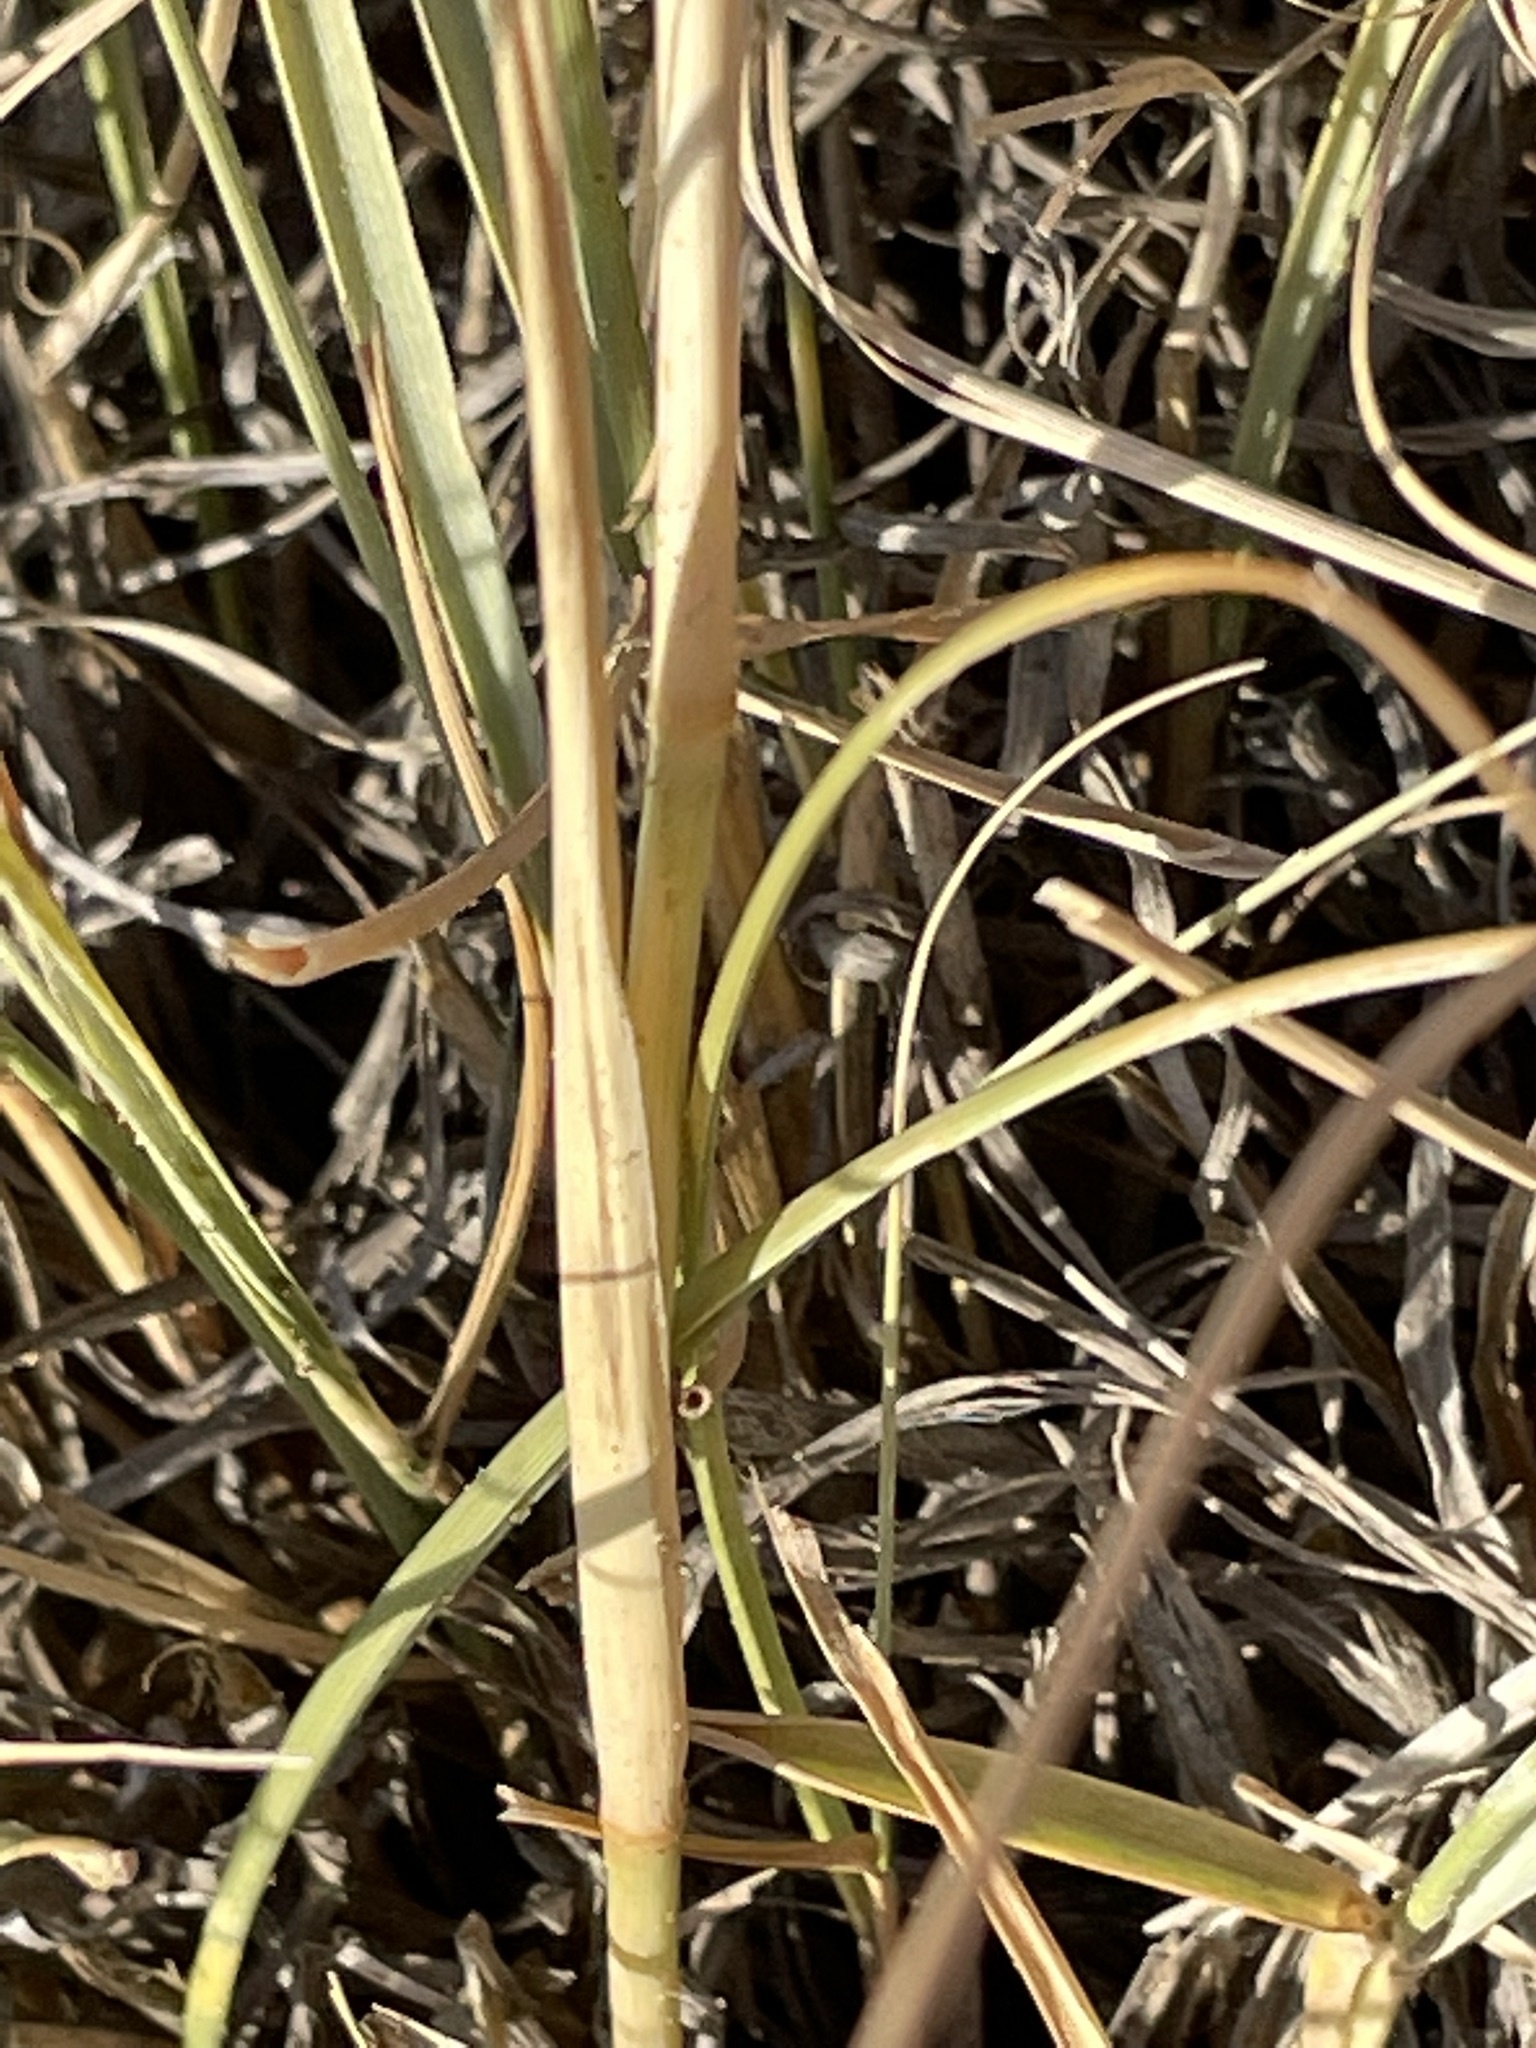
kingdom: Plantae
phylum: Tracheophyta
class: Liliopsida
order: Poales
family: Poaceae
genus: Sporobolus
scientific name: Sporobolus airoides
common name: Alkali sacaton
